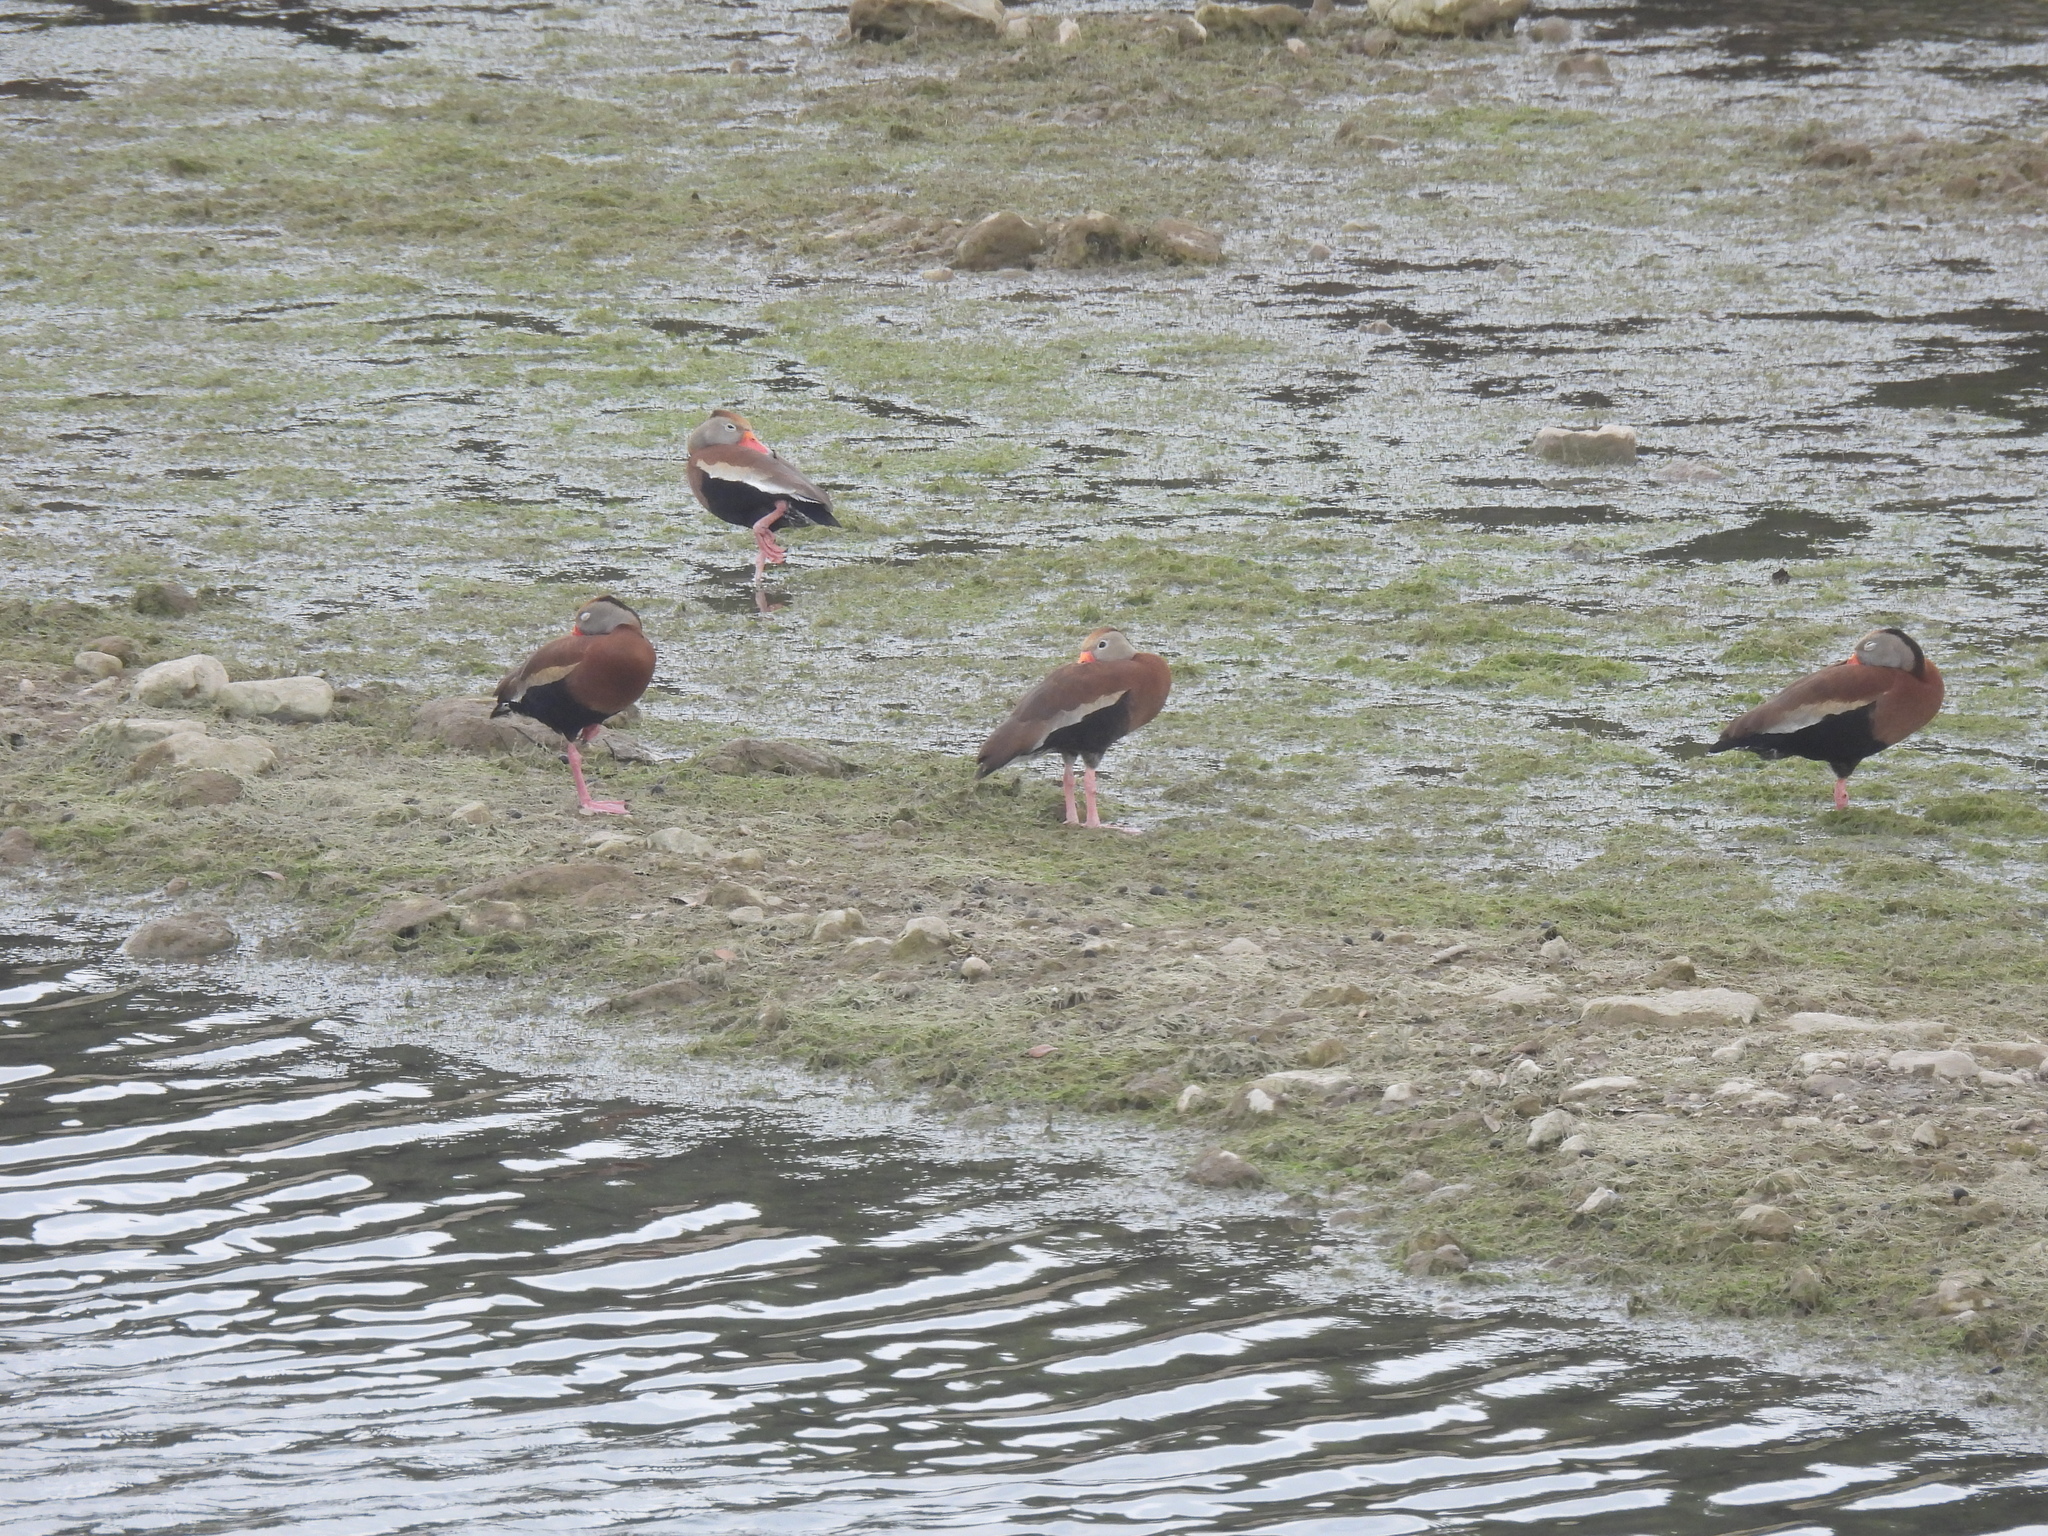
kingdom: Animalia
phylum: Chordata
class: Aves
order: Anseriformes
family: Anatidae
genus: Dendrocygna
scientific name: Dendrocygna autumnalis
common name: Black-bellied whistling duck
